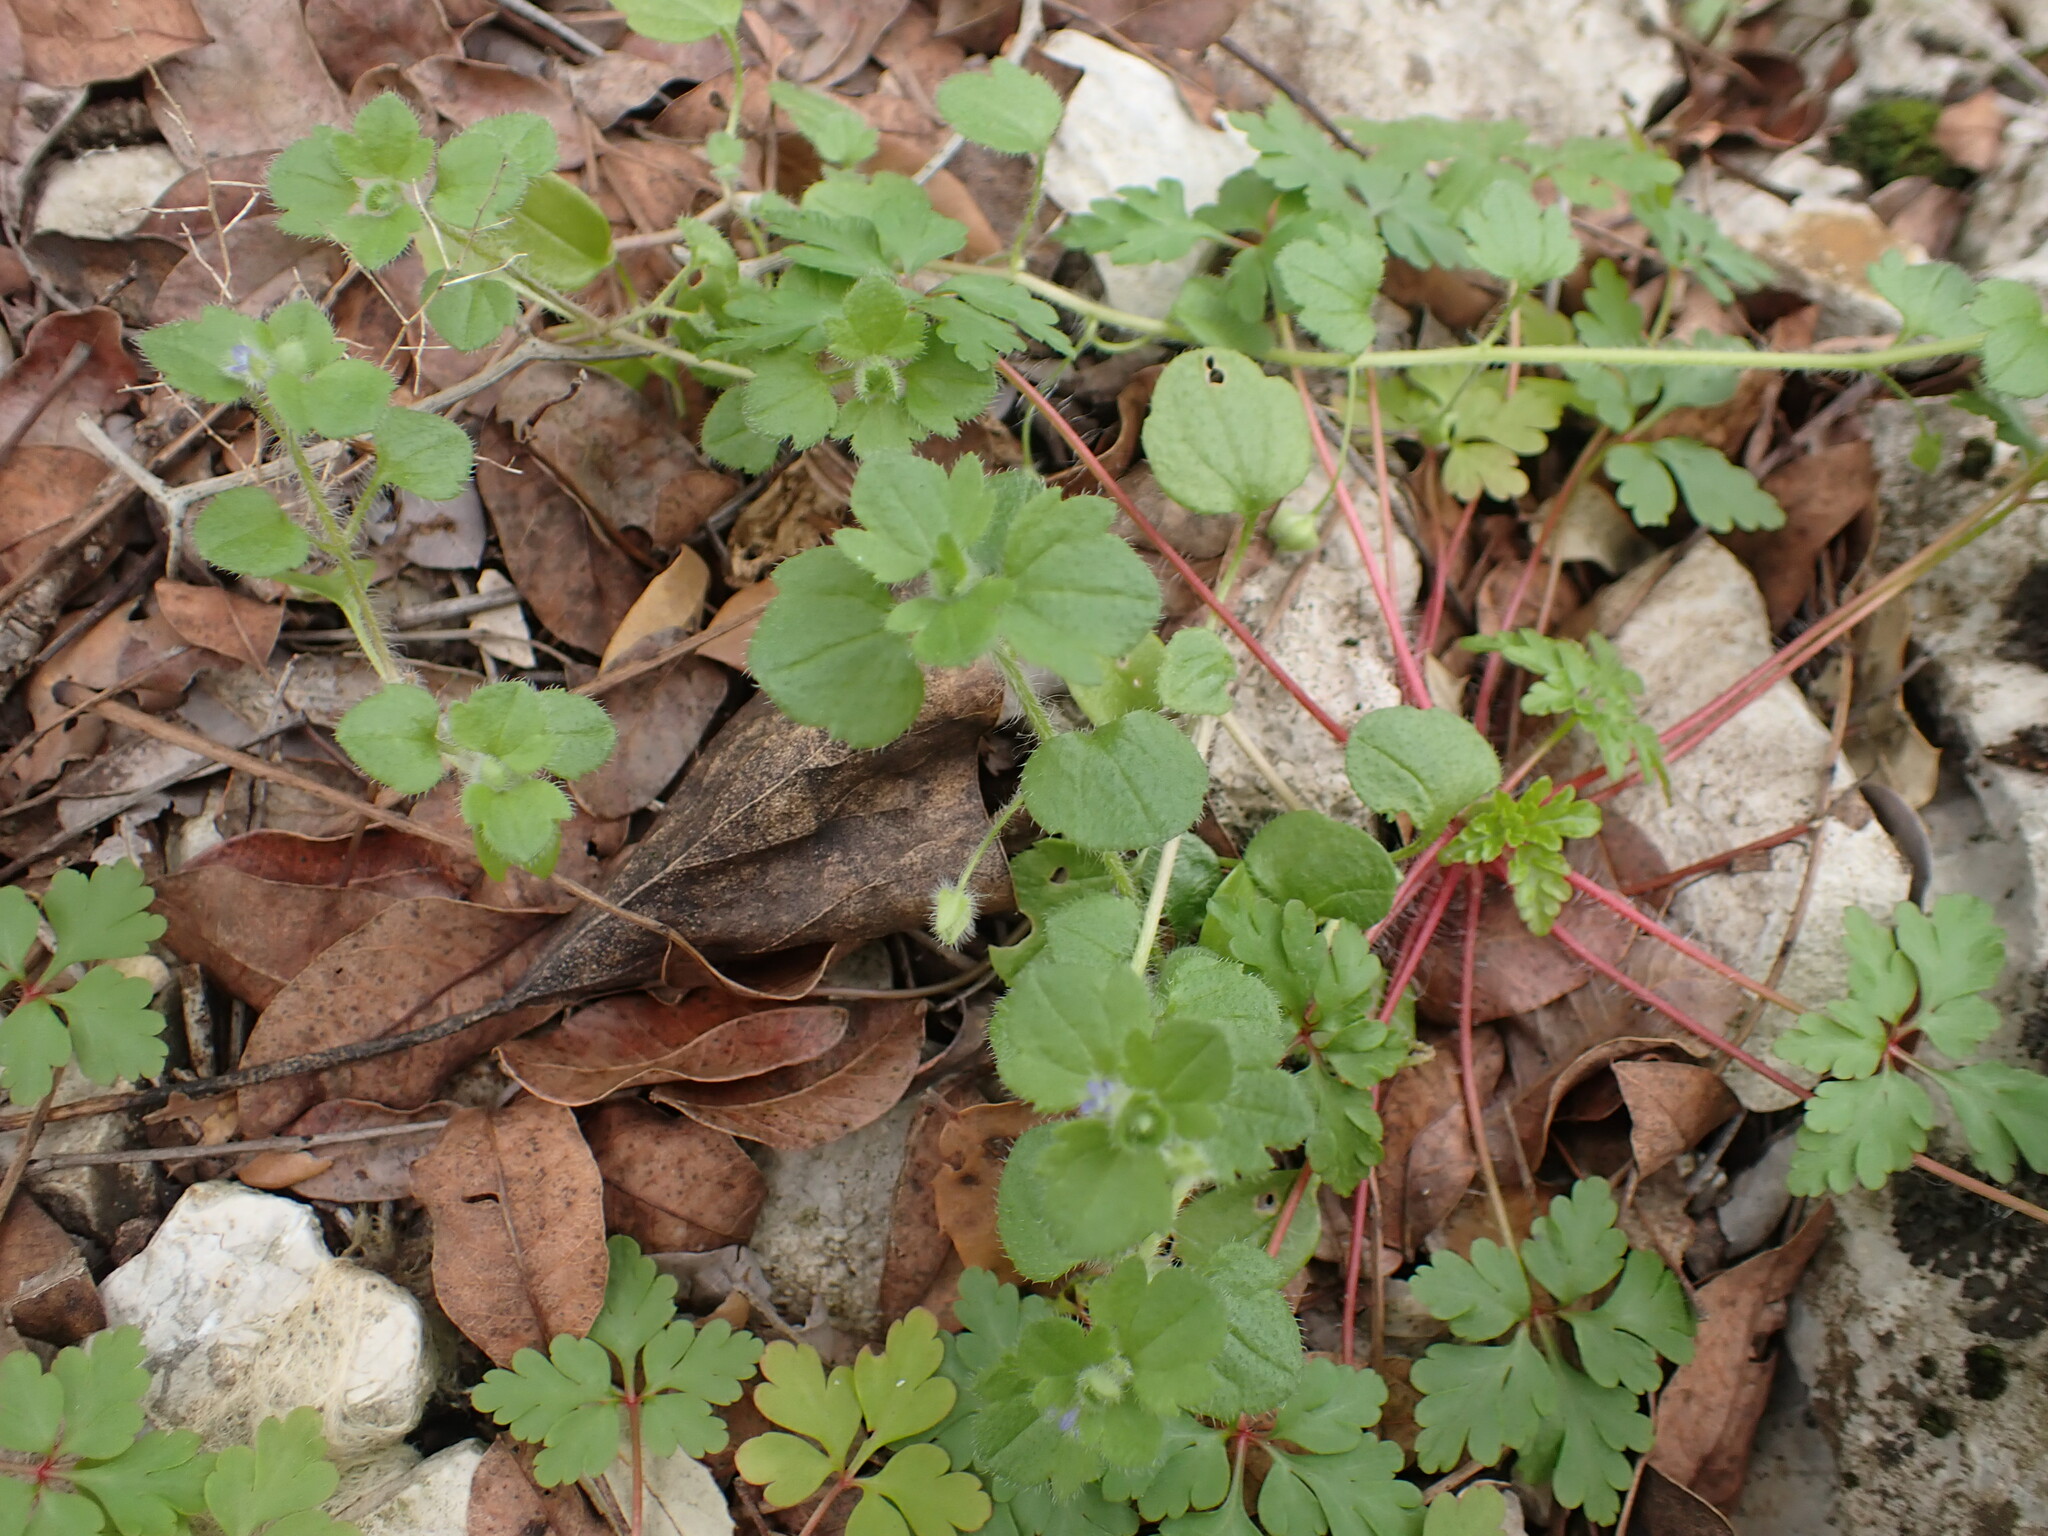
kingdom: Plantae
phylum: Tracheophyta
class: Magnoliopsida
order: Lamiales
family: Plantaginaceae
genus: Veronica
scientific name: Veronica hederifolia
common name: Ivy-leaved speedwell
